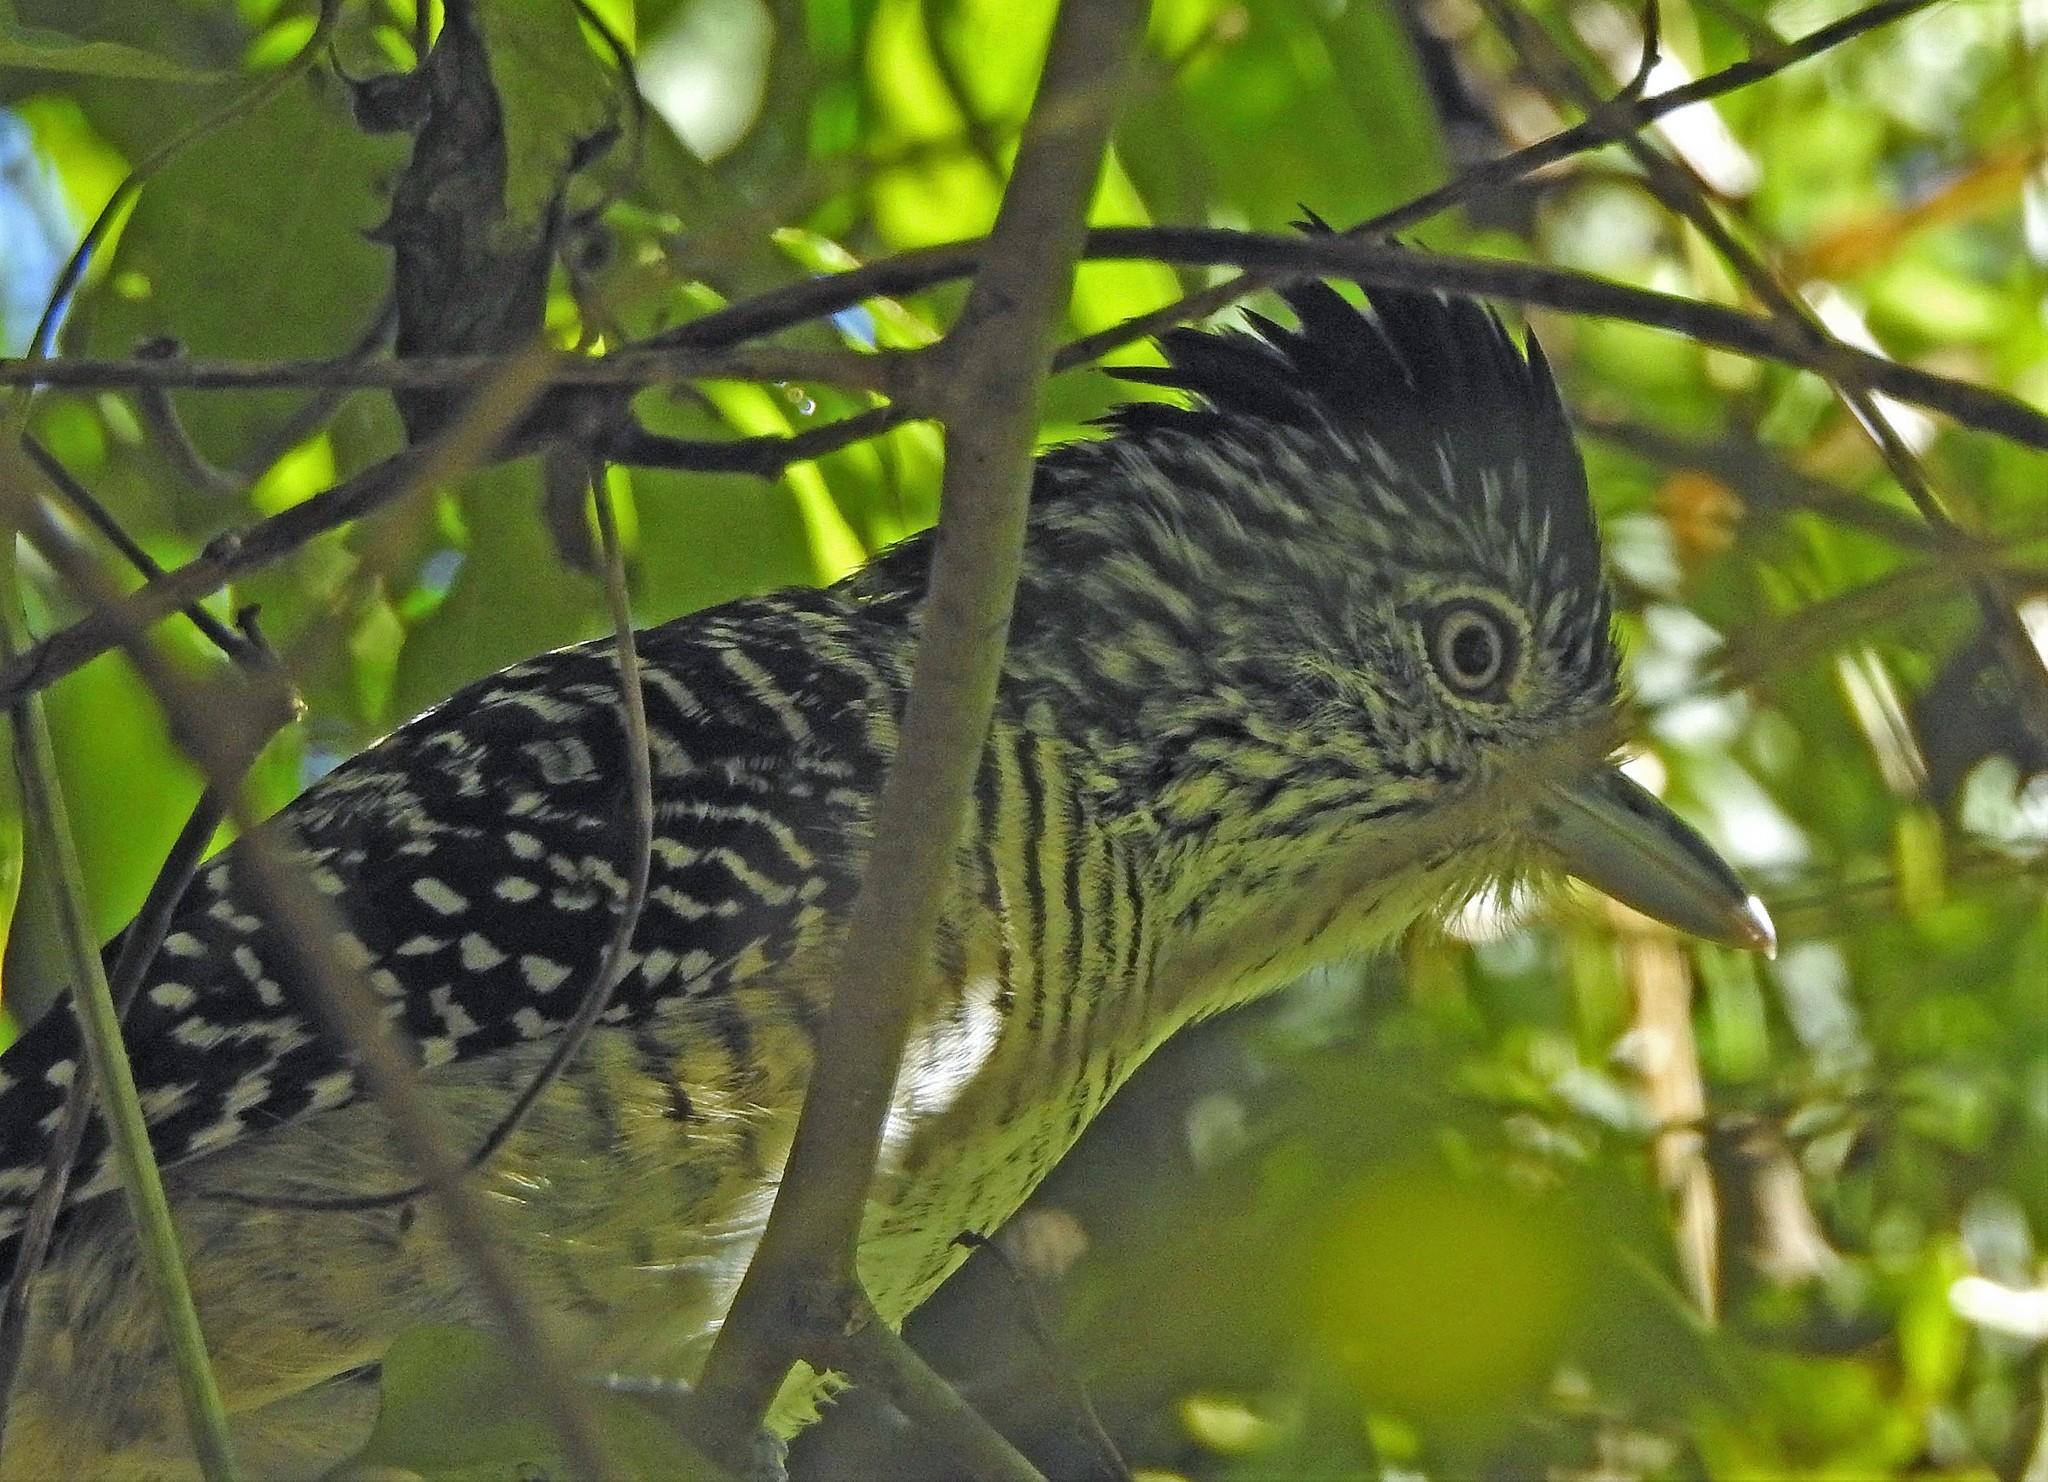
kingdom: Animalia
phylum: Chordata
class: Aves
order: Passeriformes
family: Thamnophilidae
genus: Thamnophilus
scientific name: Thamnophilus doliatus
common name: Barred antshrike
